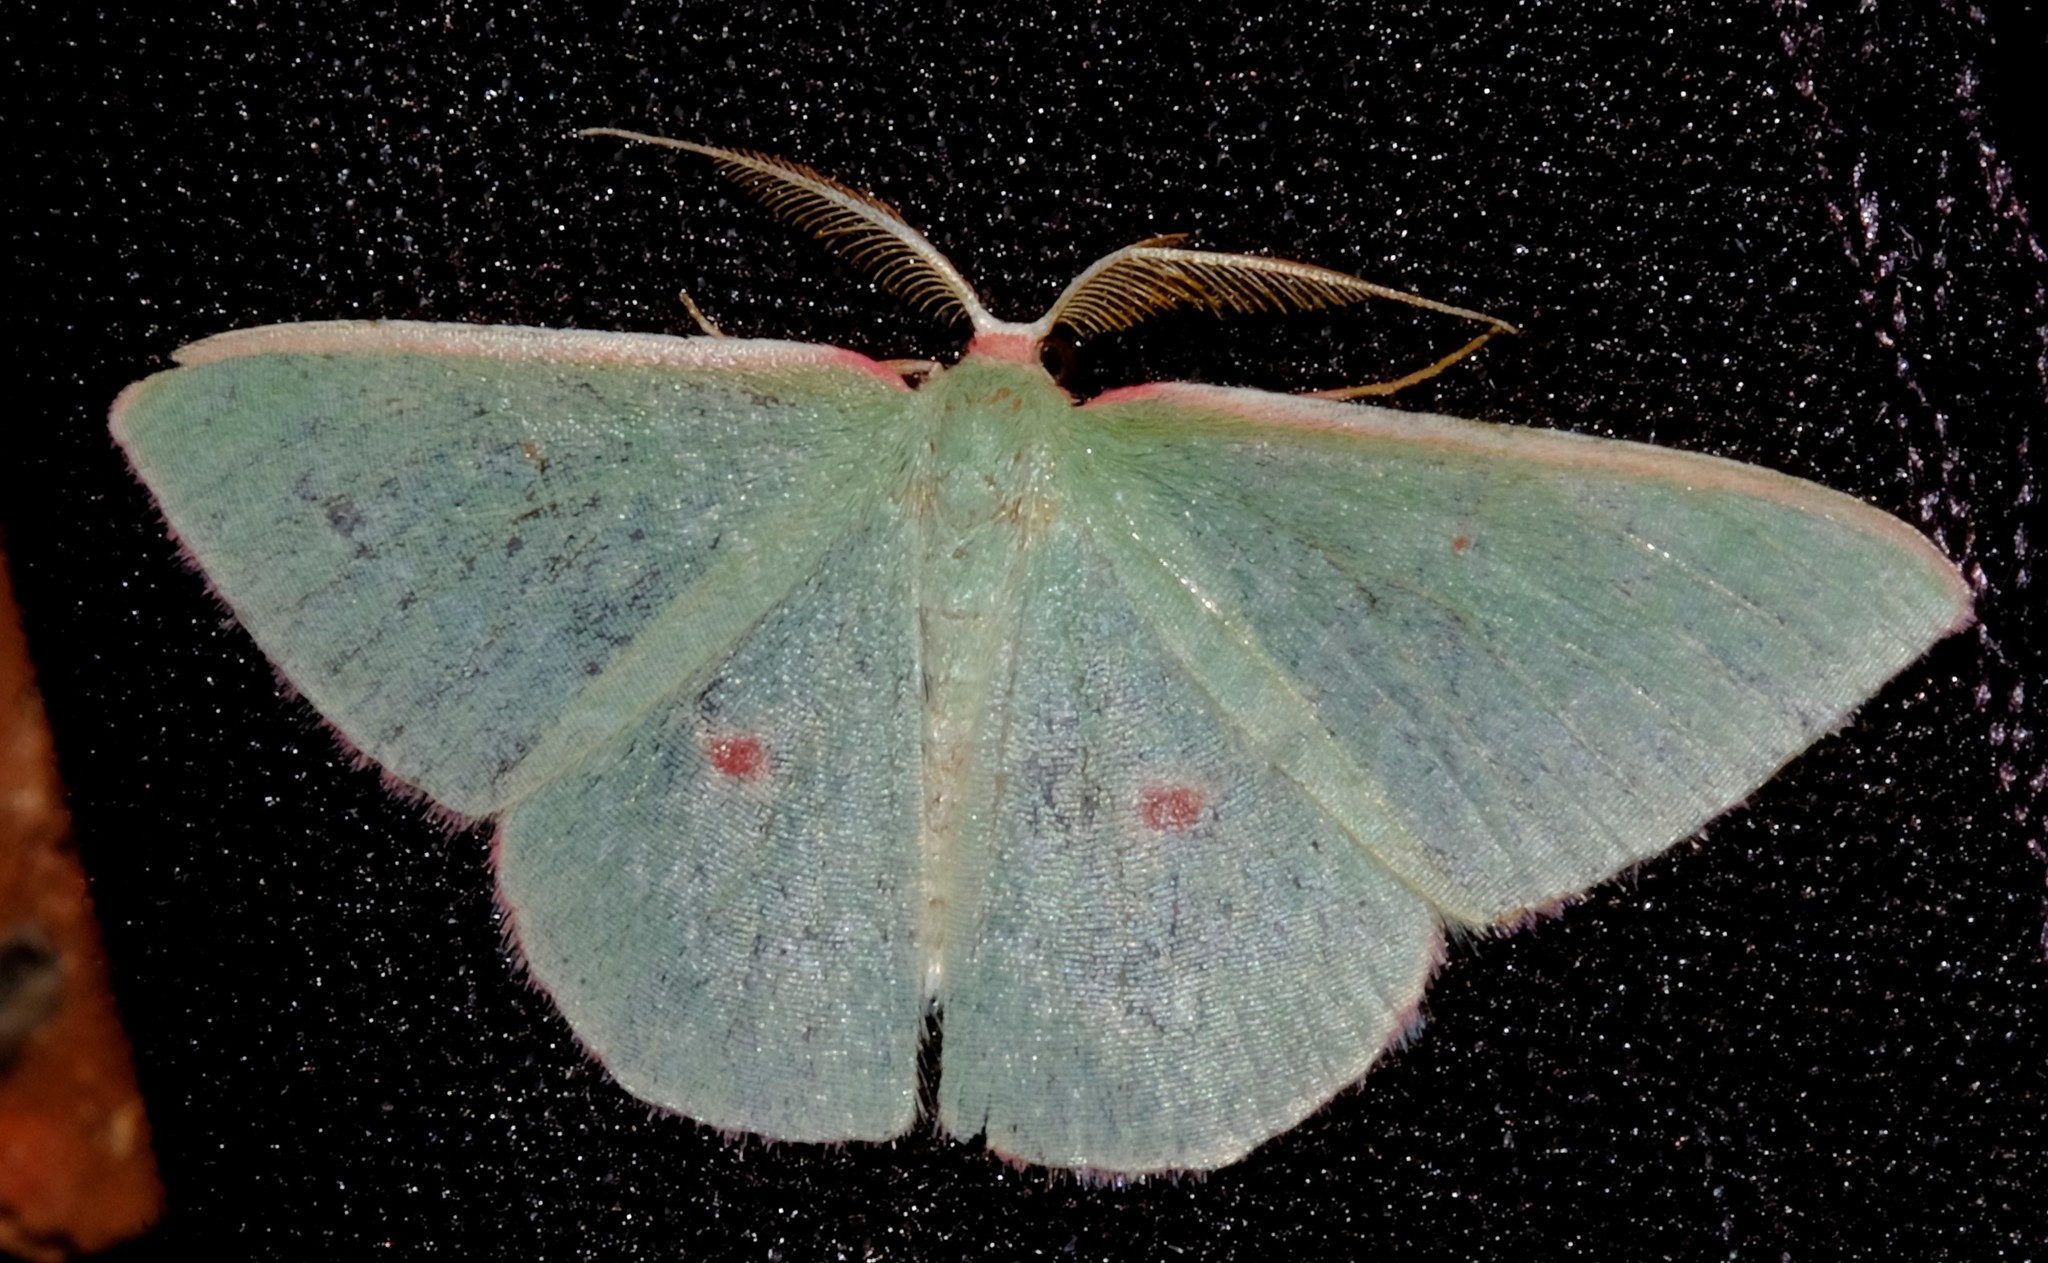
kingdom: Animalia
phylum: Arthropoda
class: Insecta
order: Lepidoptera
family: Geometridae
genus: Chlorocoma
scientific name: Chlorocoma cadmaria
